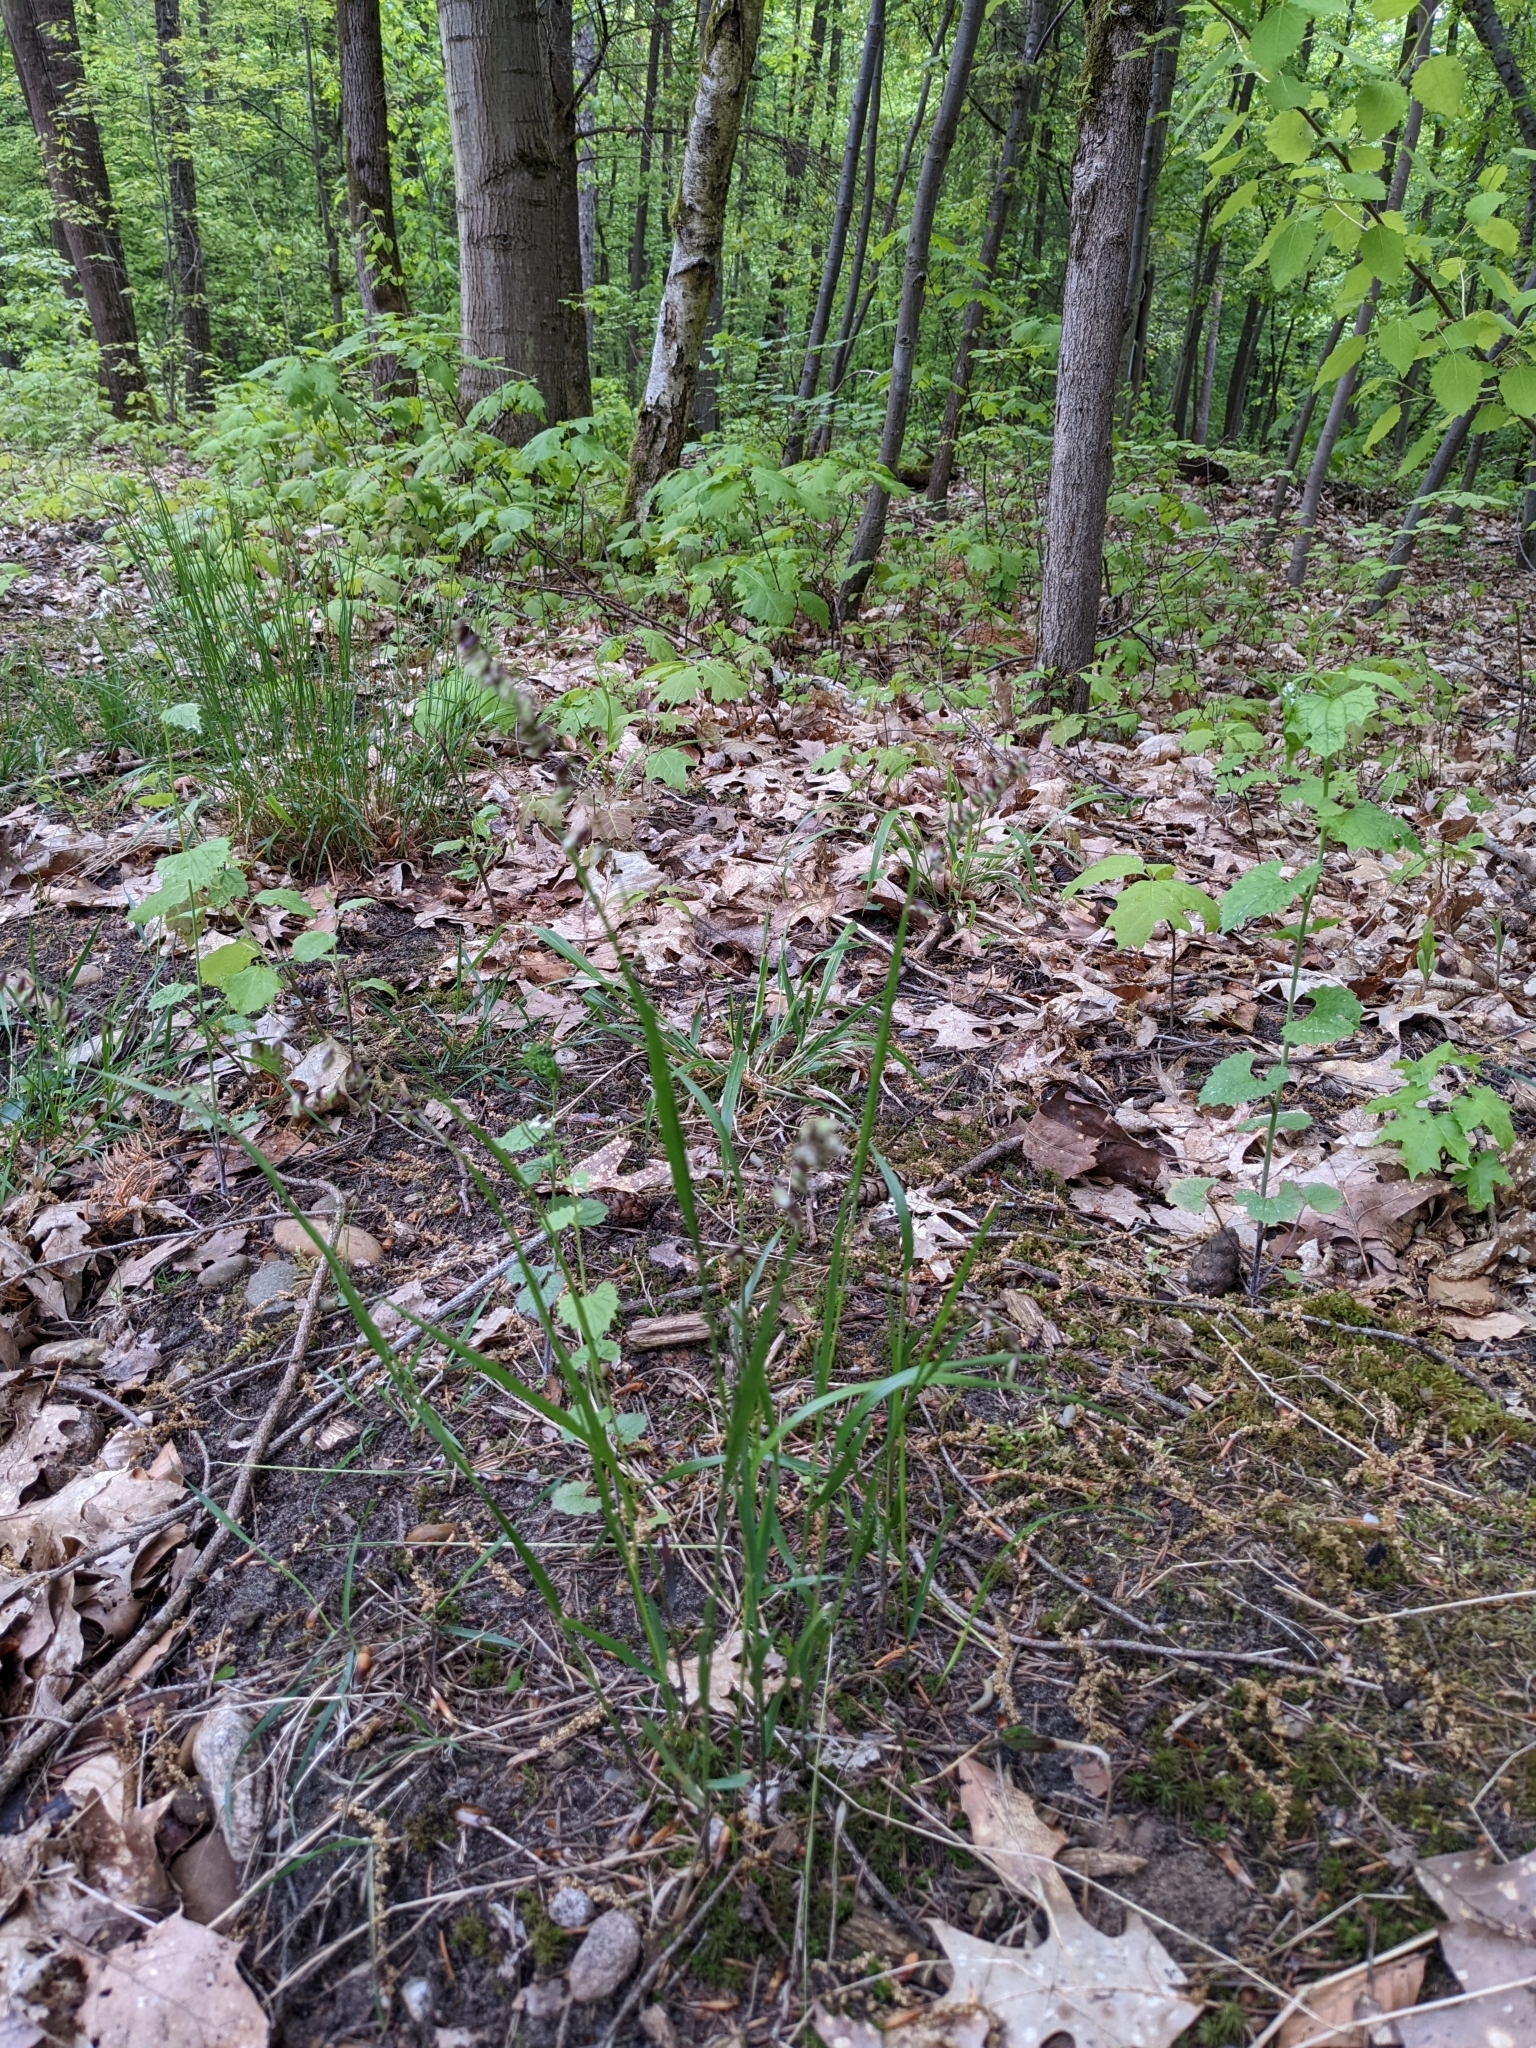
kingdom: Plantae
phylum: Tracheophyta
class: Liliopsida
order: Poales
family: Poaceae
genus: Melica
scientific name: Melica nutans
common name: Mountain melick
